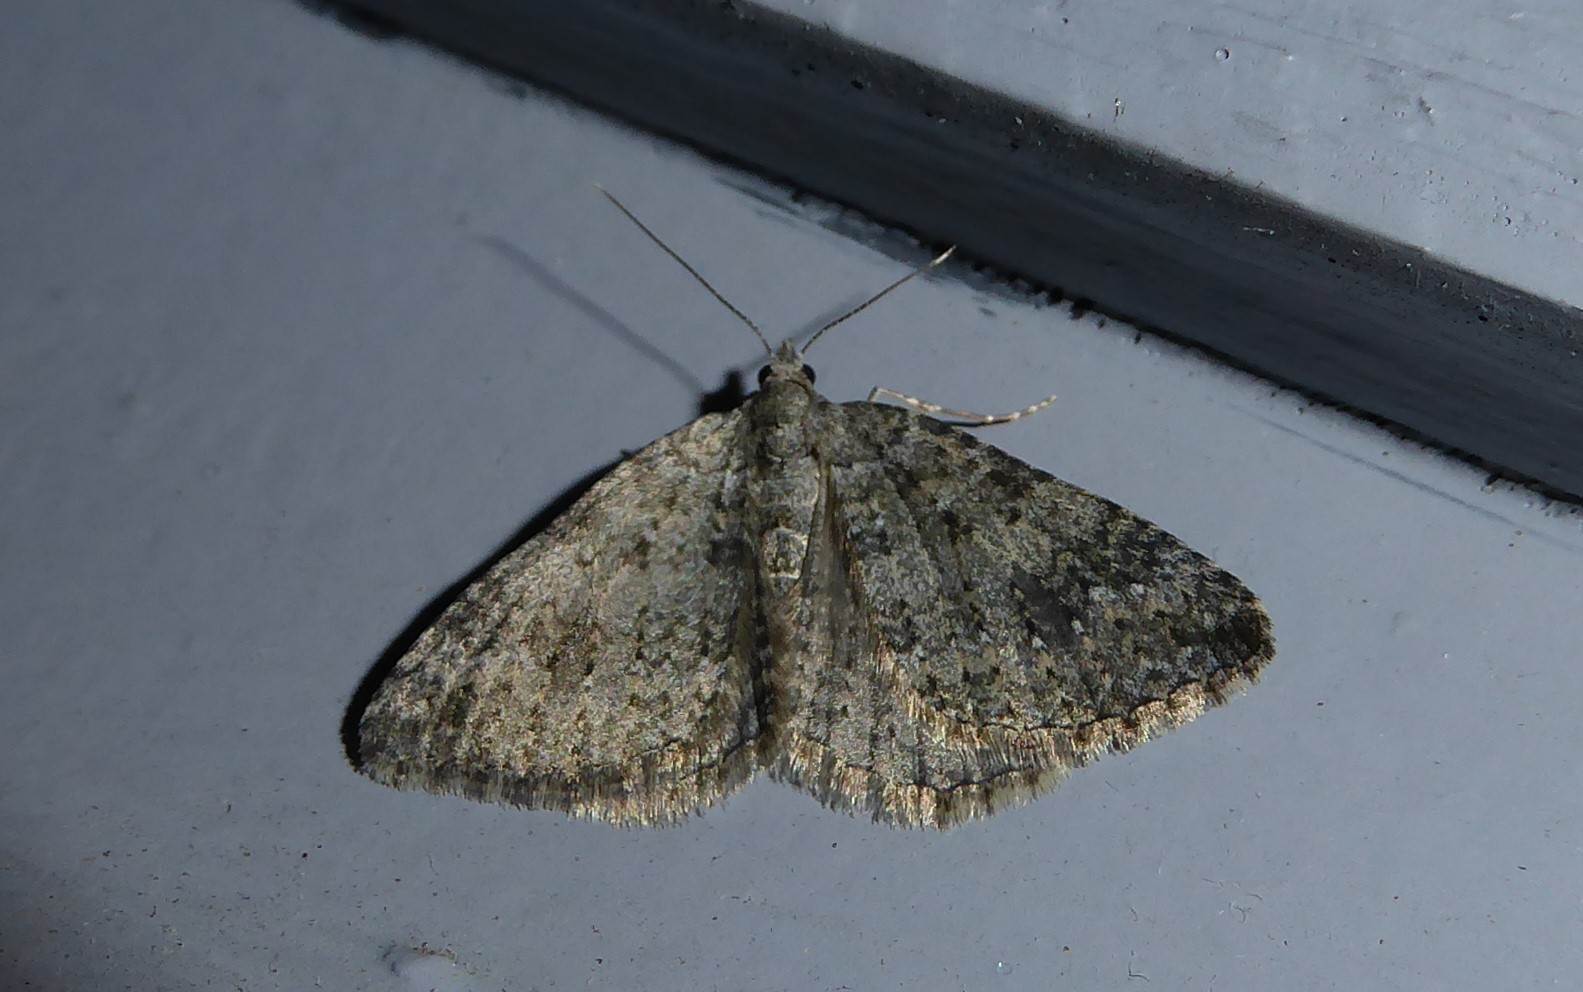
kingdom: Animalia
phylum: Arthropoda
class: Insecta
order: Lepidoptera
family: Geometridae
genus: Helastia
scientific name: Helastia corcularia
